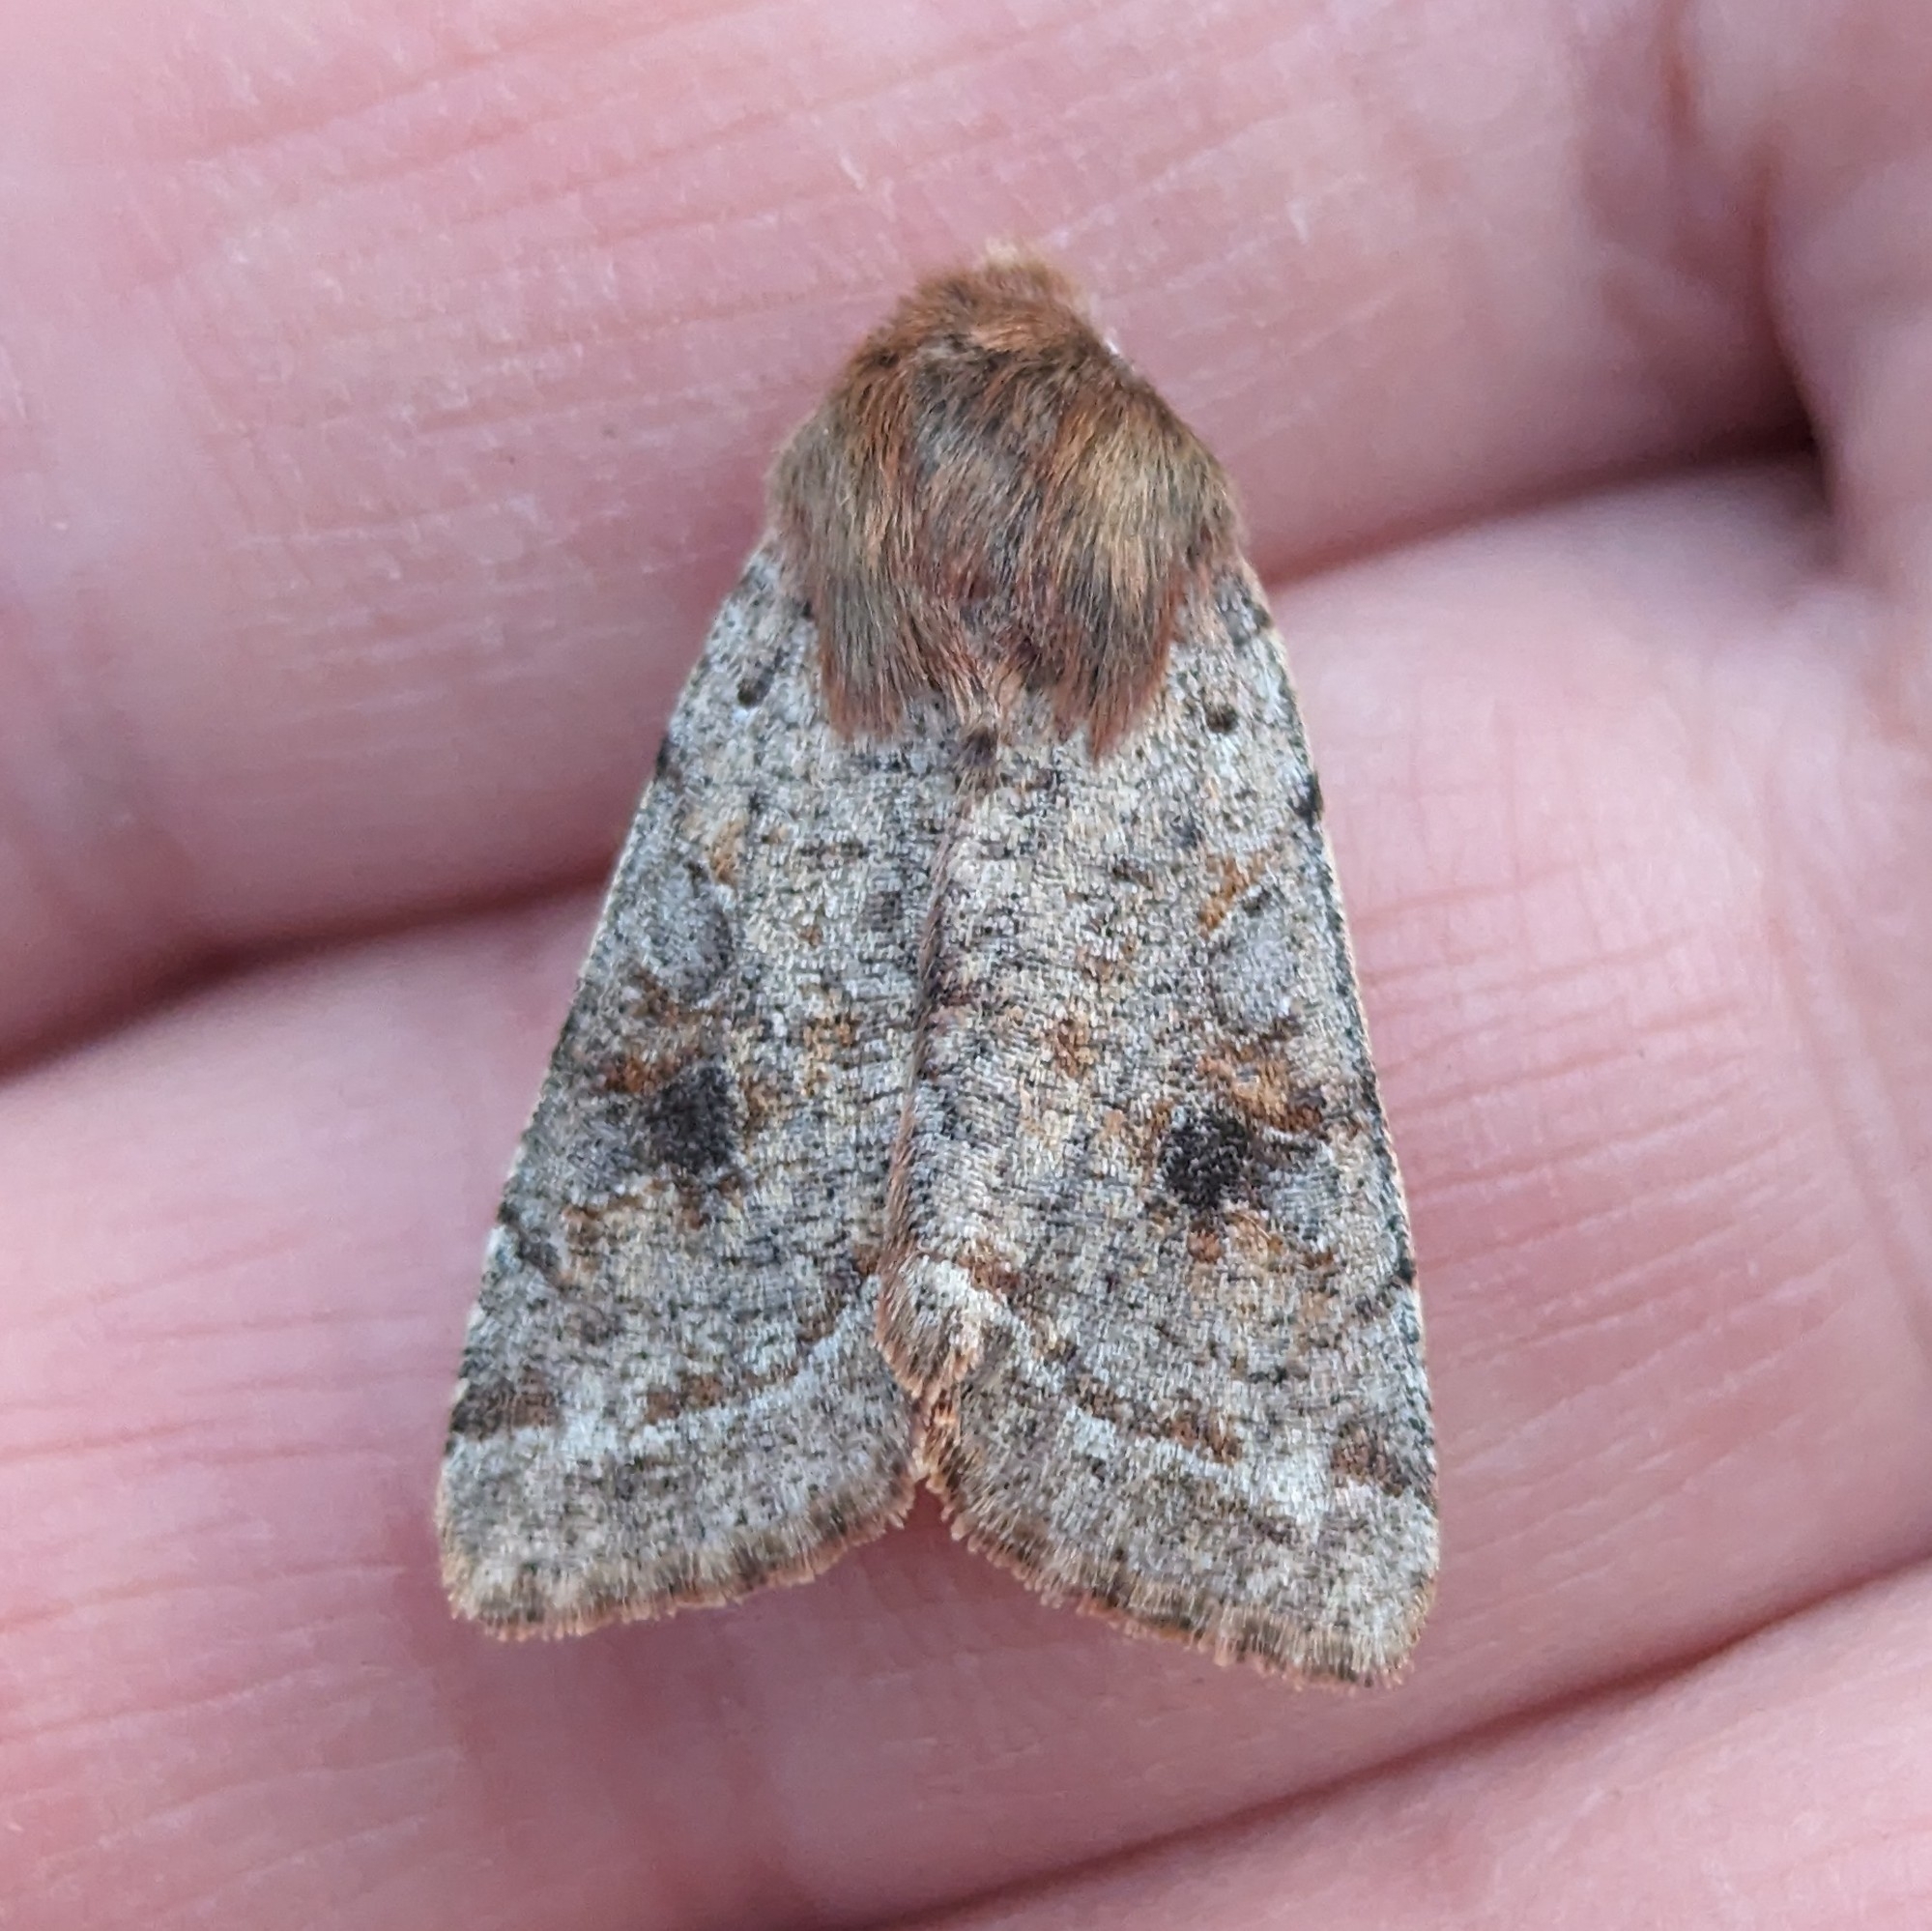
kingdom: Animalia
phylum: Arthropoda
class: Insecta
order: Lepidoptera
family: Noctuidae
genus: Orthosia
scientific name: Orthosia hibisci
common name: Green fruitworm
